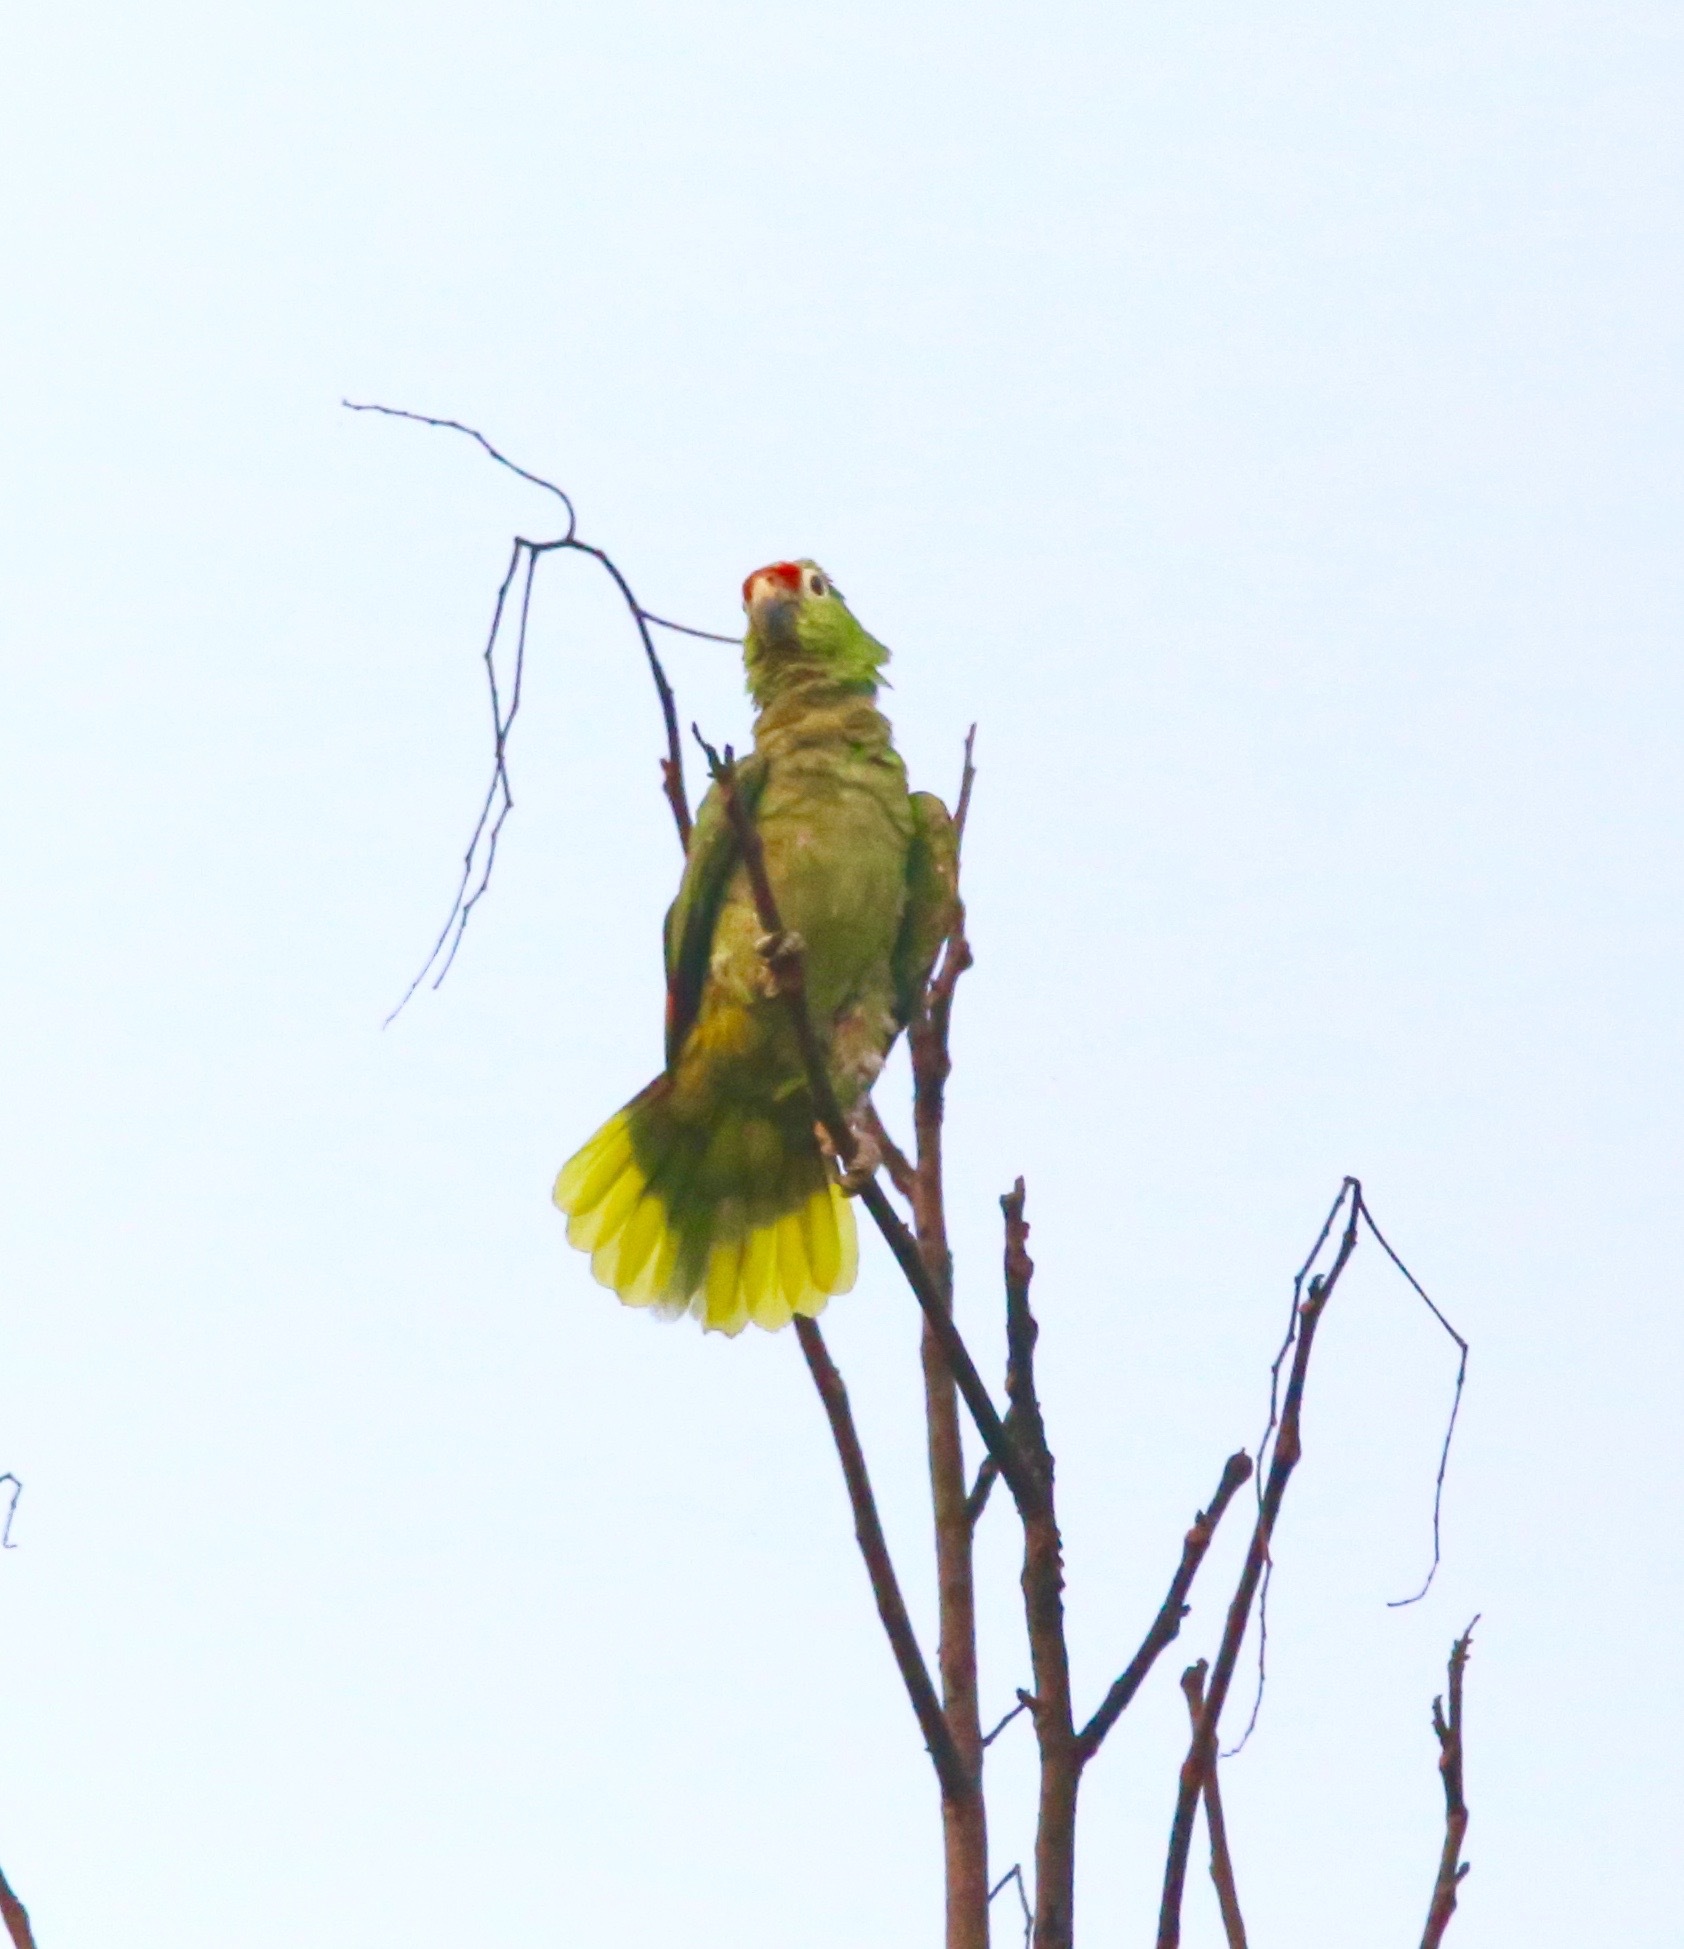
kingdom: Animalia
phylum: Chordata
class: Aves
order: Psittaciformes
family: Psittacidae
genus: Amazona
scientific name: Amazona autumnalis
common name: Red-lored amazon
